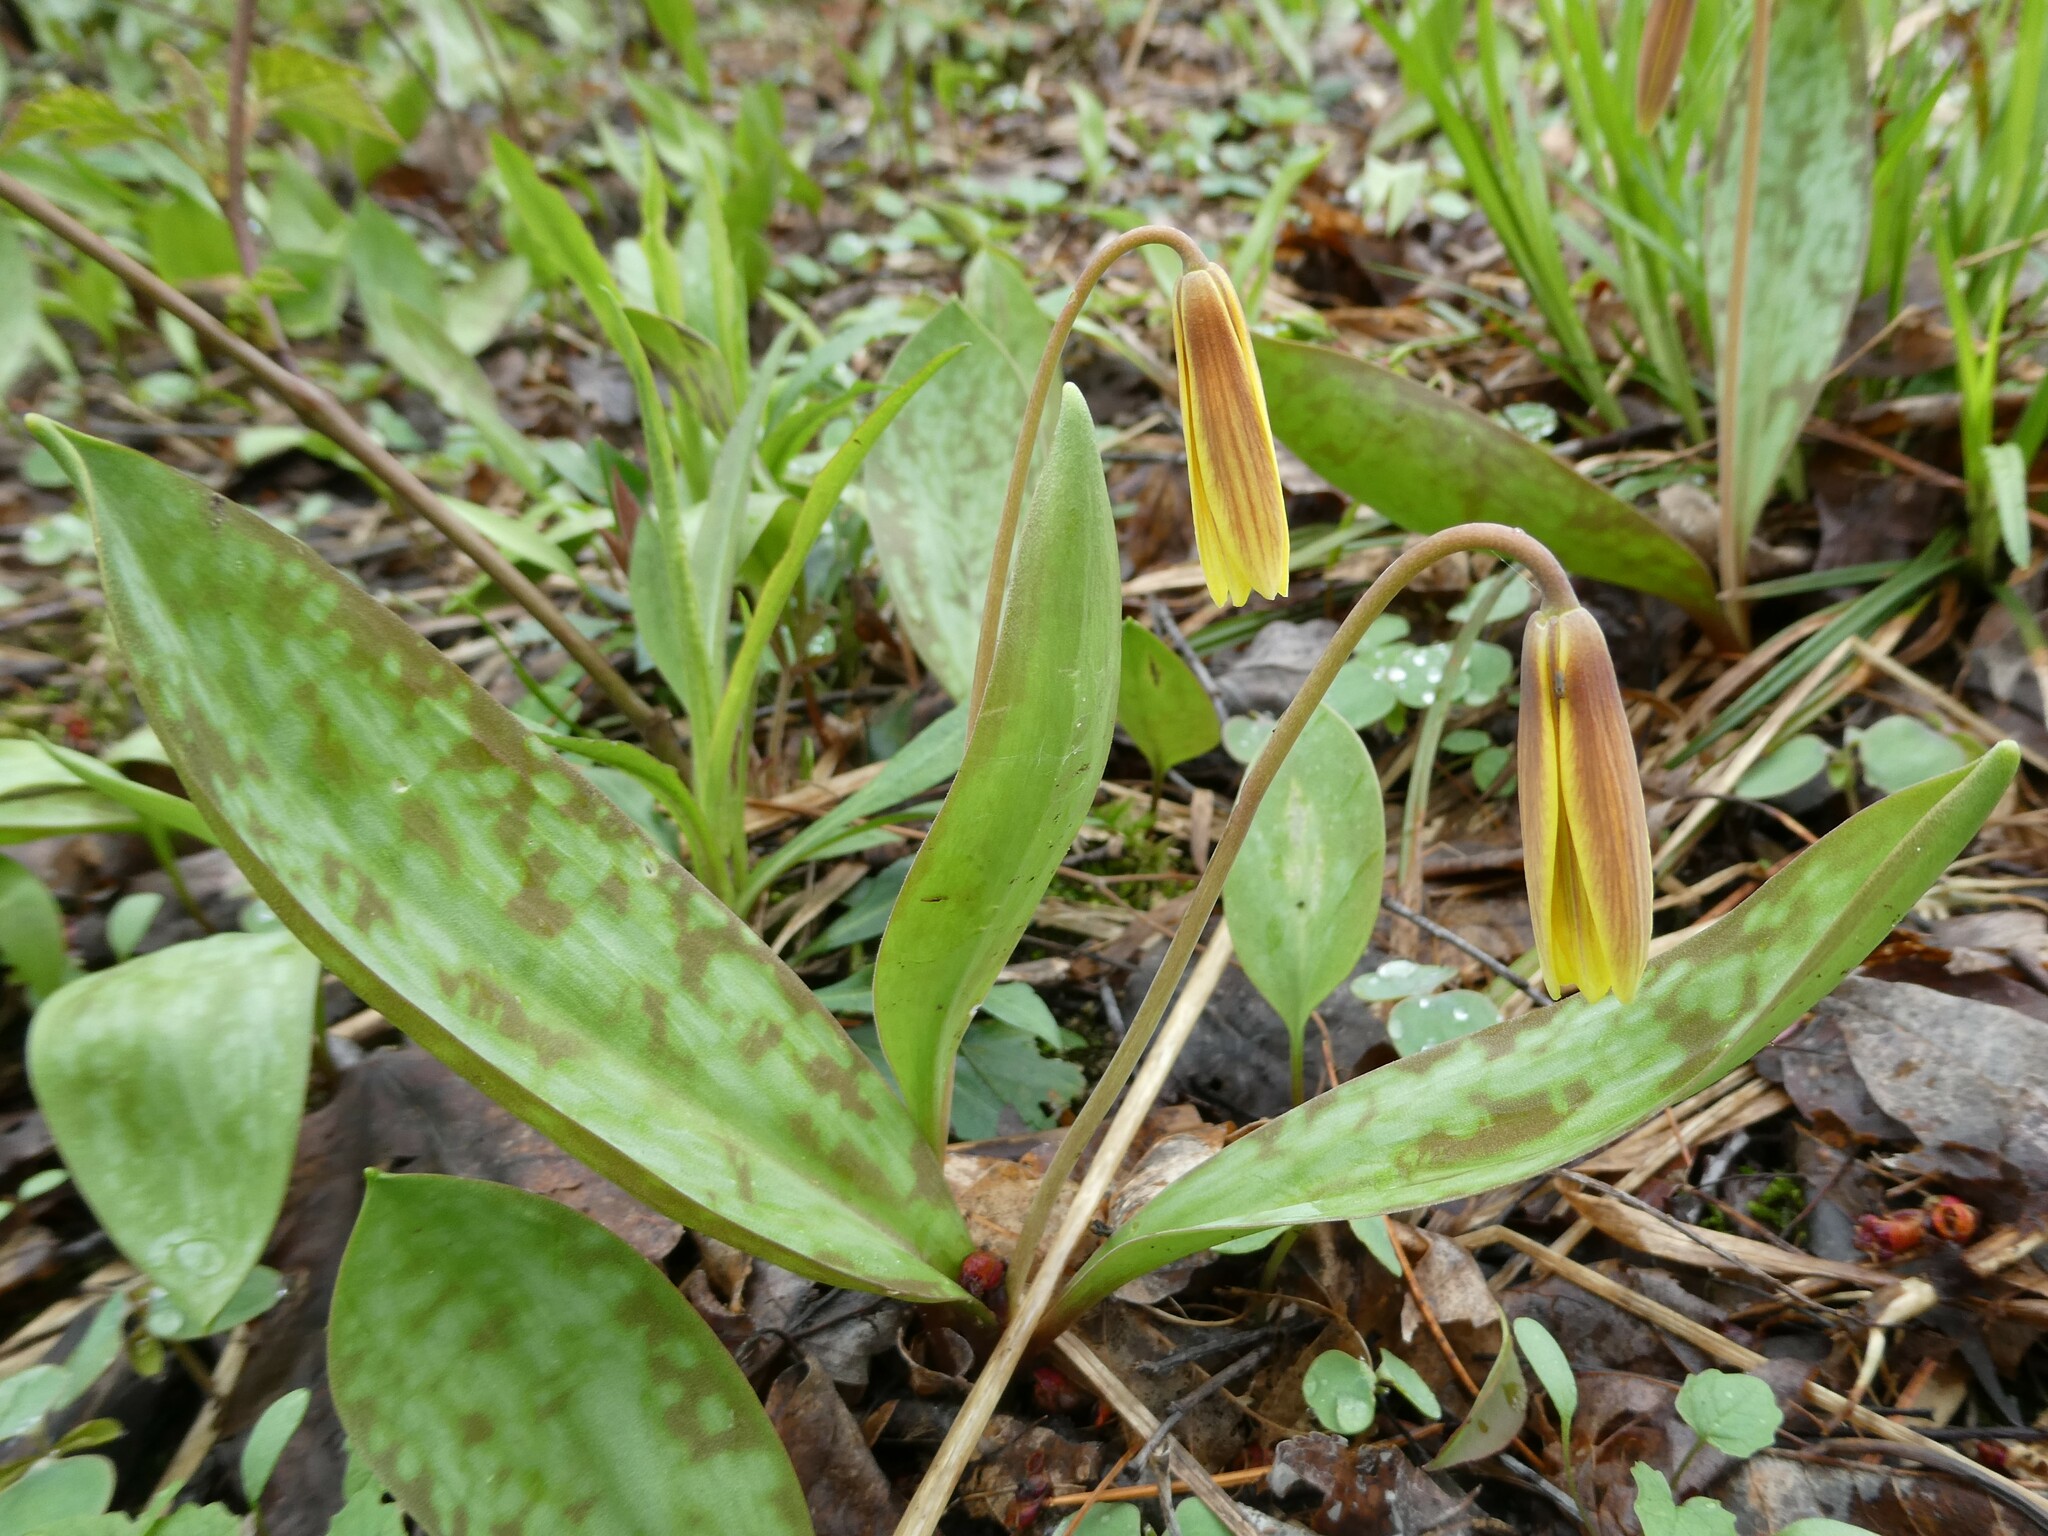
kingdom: Plantae
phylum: Tracheophyta
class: Liliopsida
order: Liliales
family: Liliaceae
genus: Erythronium
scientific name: Erythronium americanum
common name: Yellow adder's-tongue
